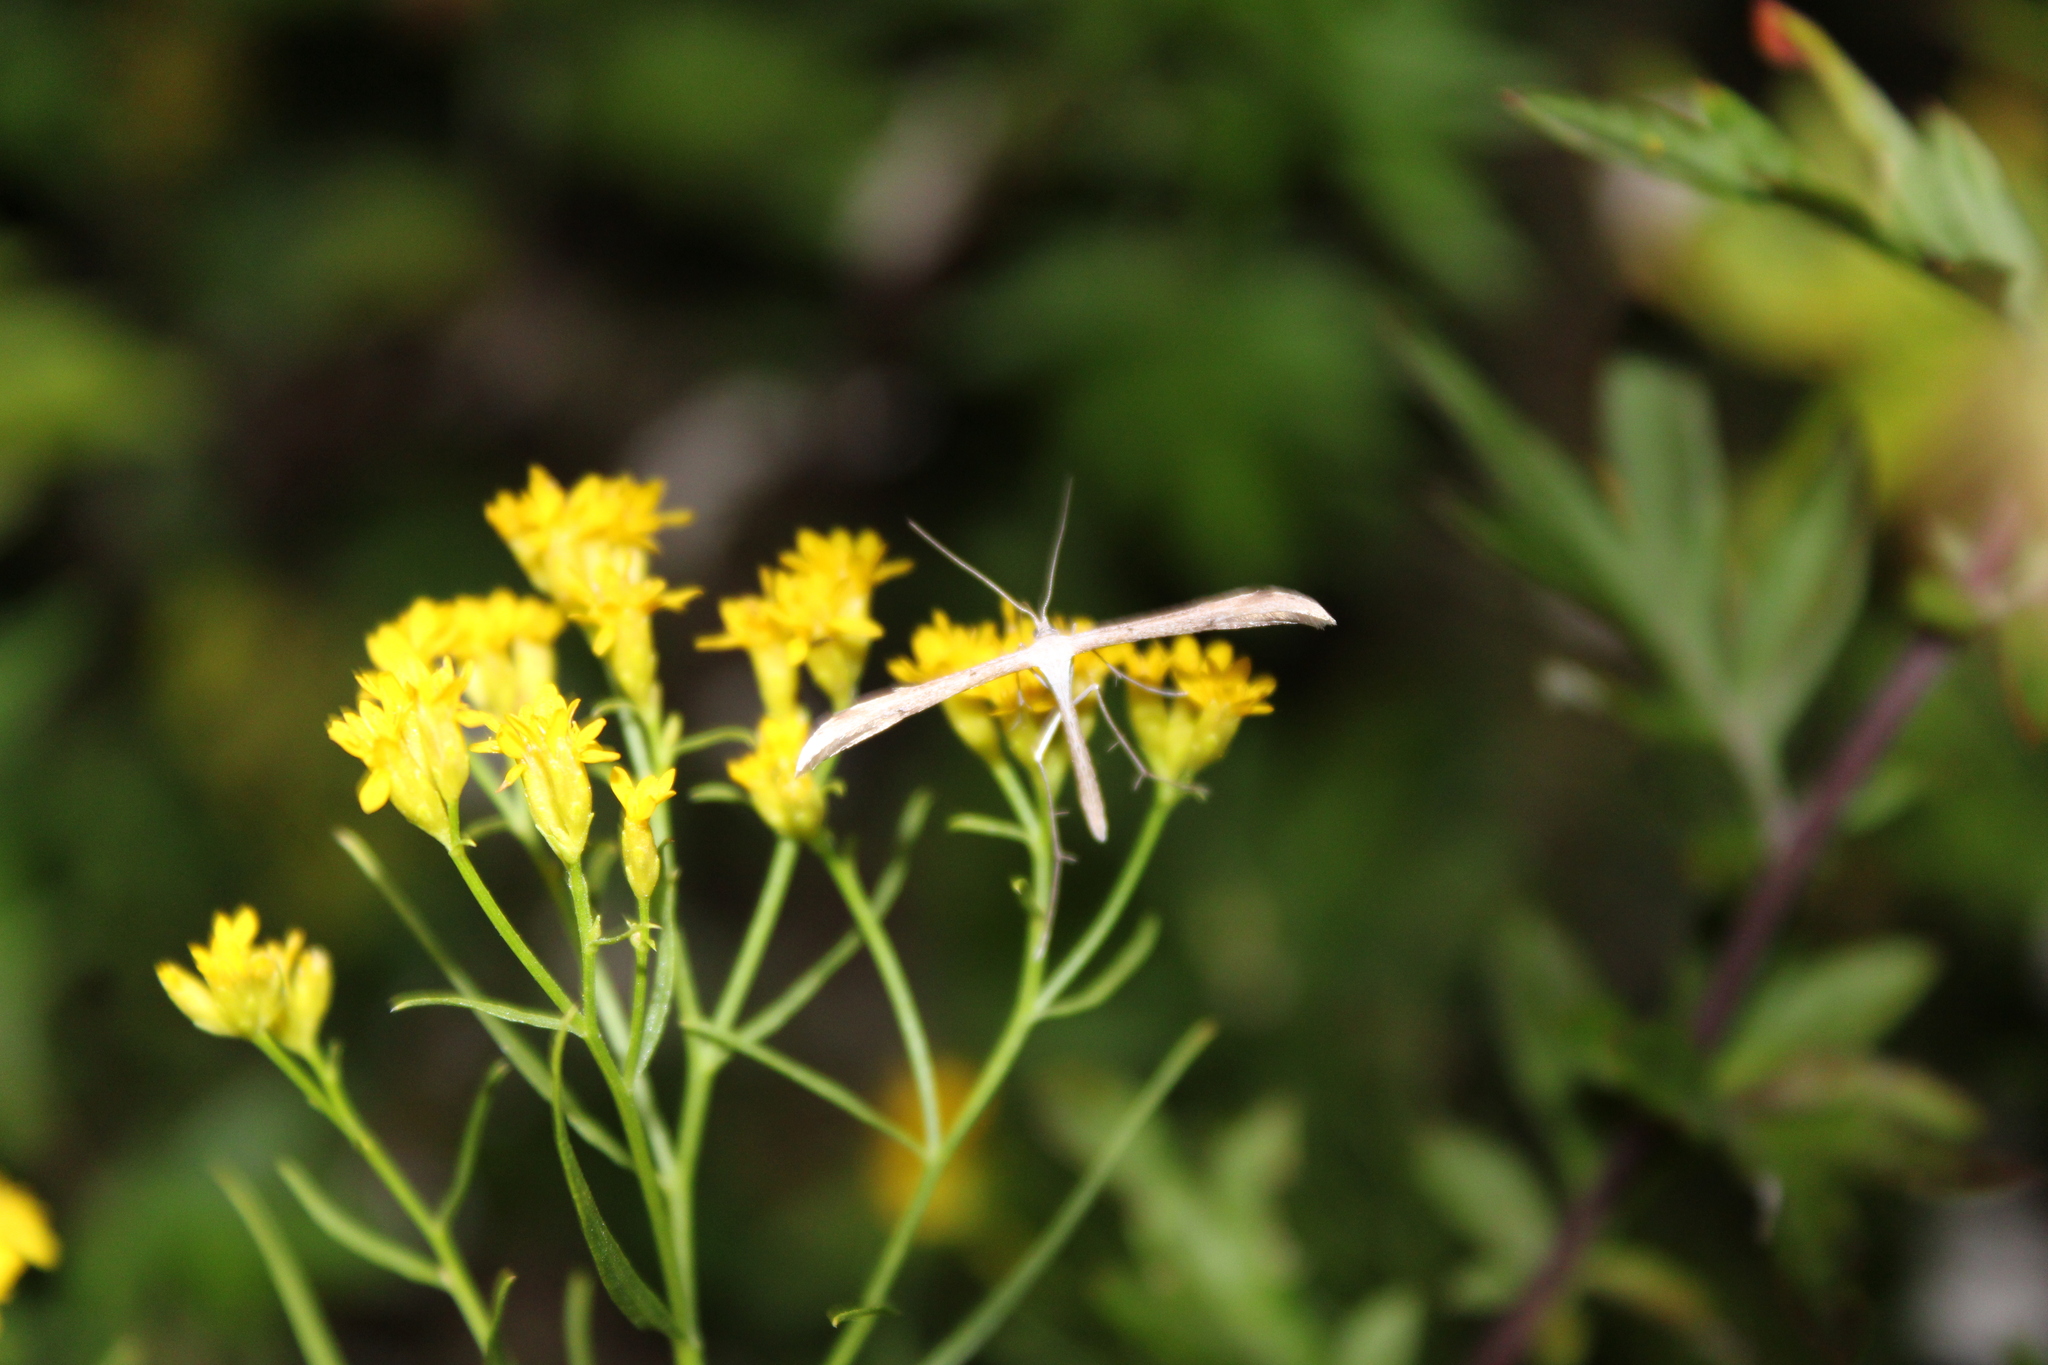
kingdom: Animalia
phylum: Arthropoda
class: Insecta
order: Lepidoptera
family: Pterophoridae
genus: Emmelina
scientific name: Emmelina monodactyla
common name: Common plume
